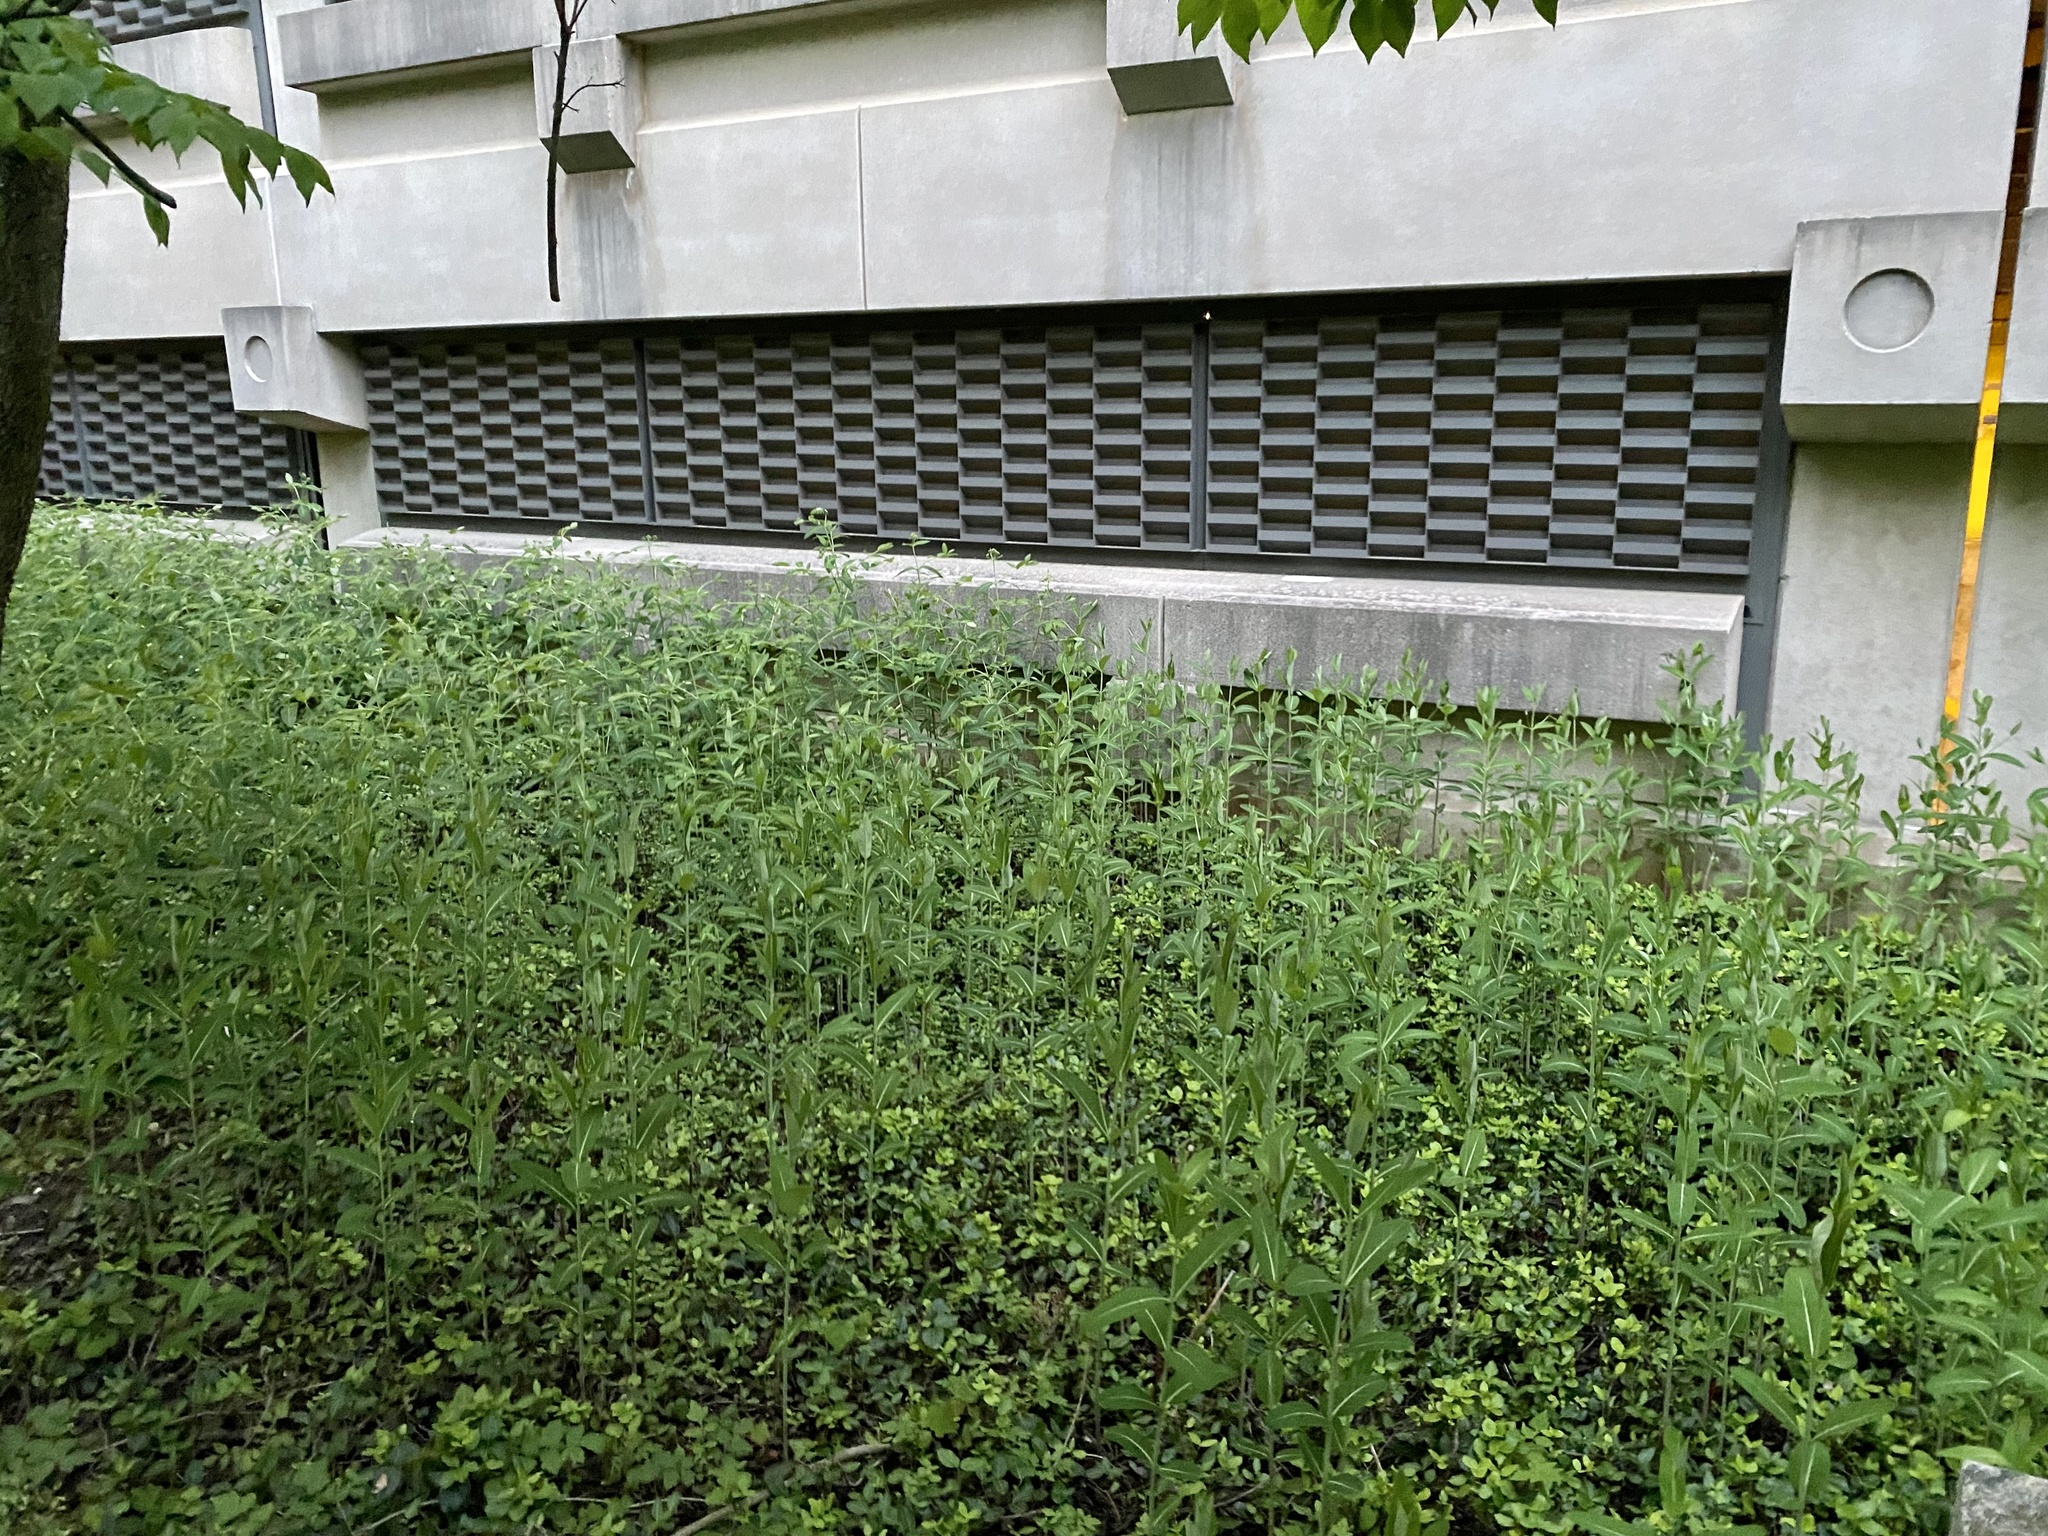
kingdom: Plantae
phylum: Tracheophyta
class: Magnoliopsida
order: Gentianales
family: Apocynaceae
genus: Apocynum
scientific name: Apocynum cannabinum
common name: Hemp dogbane
